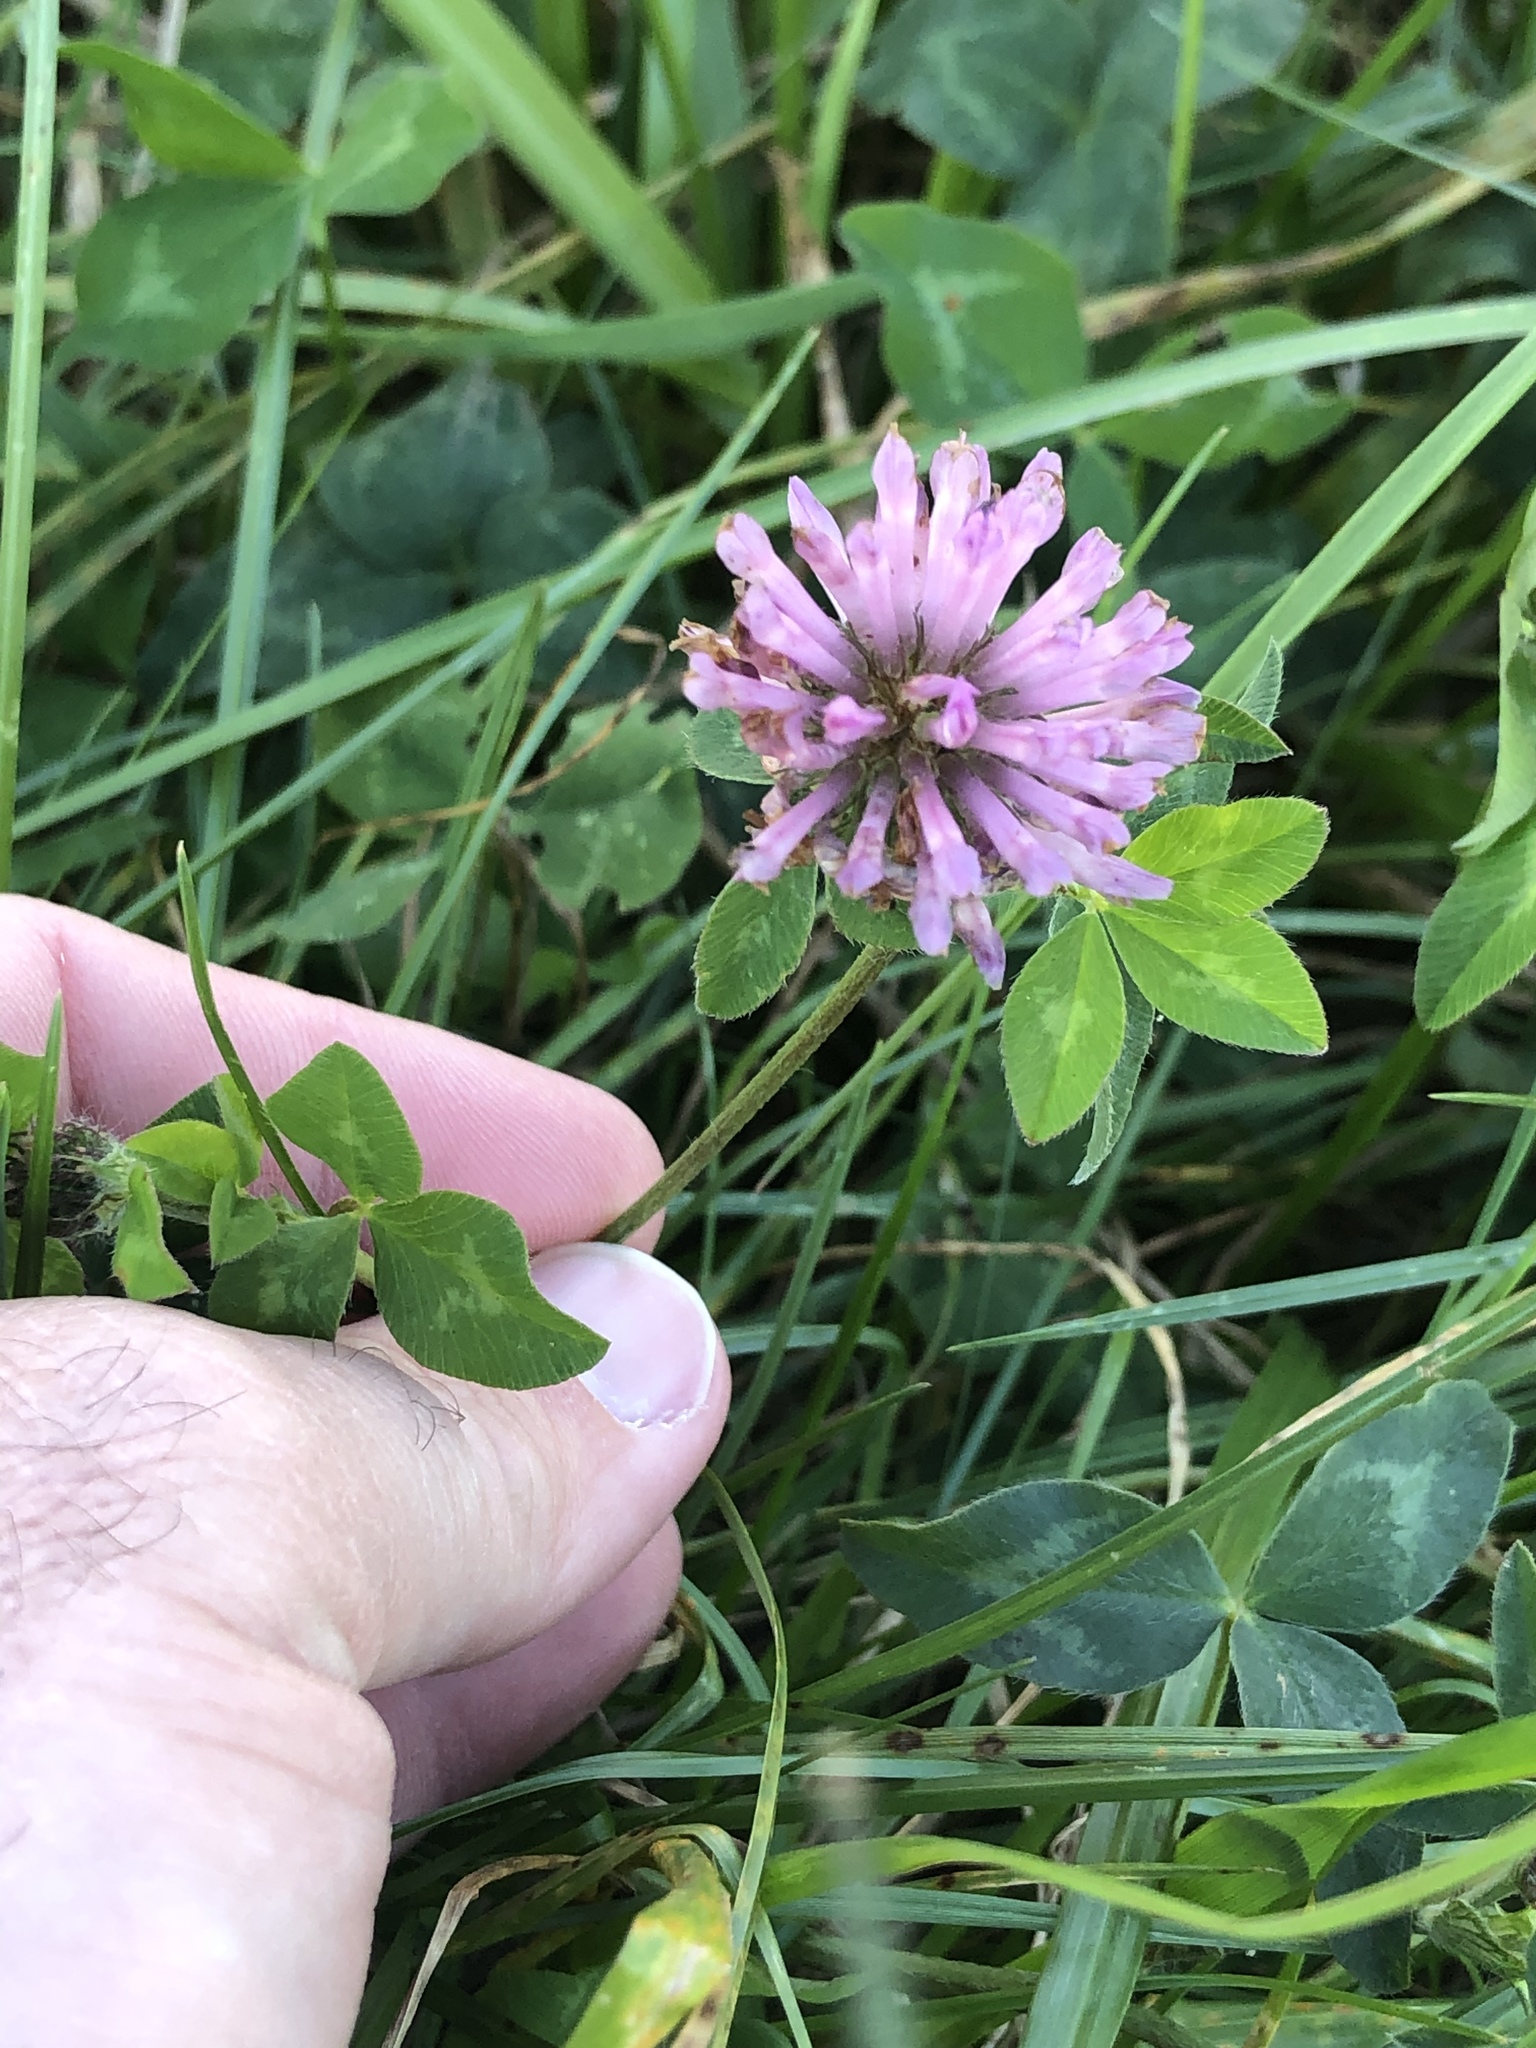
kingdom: Plantae
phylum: Tracheophyta
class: Magnoliopsida
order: Fabales
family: Fabaceae
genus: Trifolium
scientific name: Trifolium pratense
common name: Red clover
